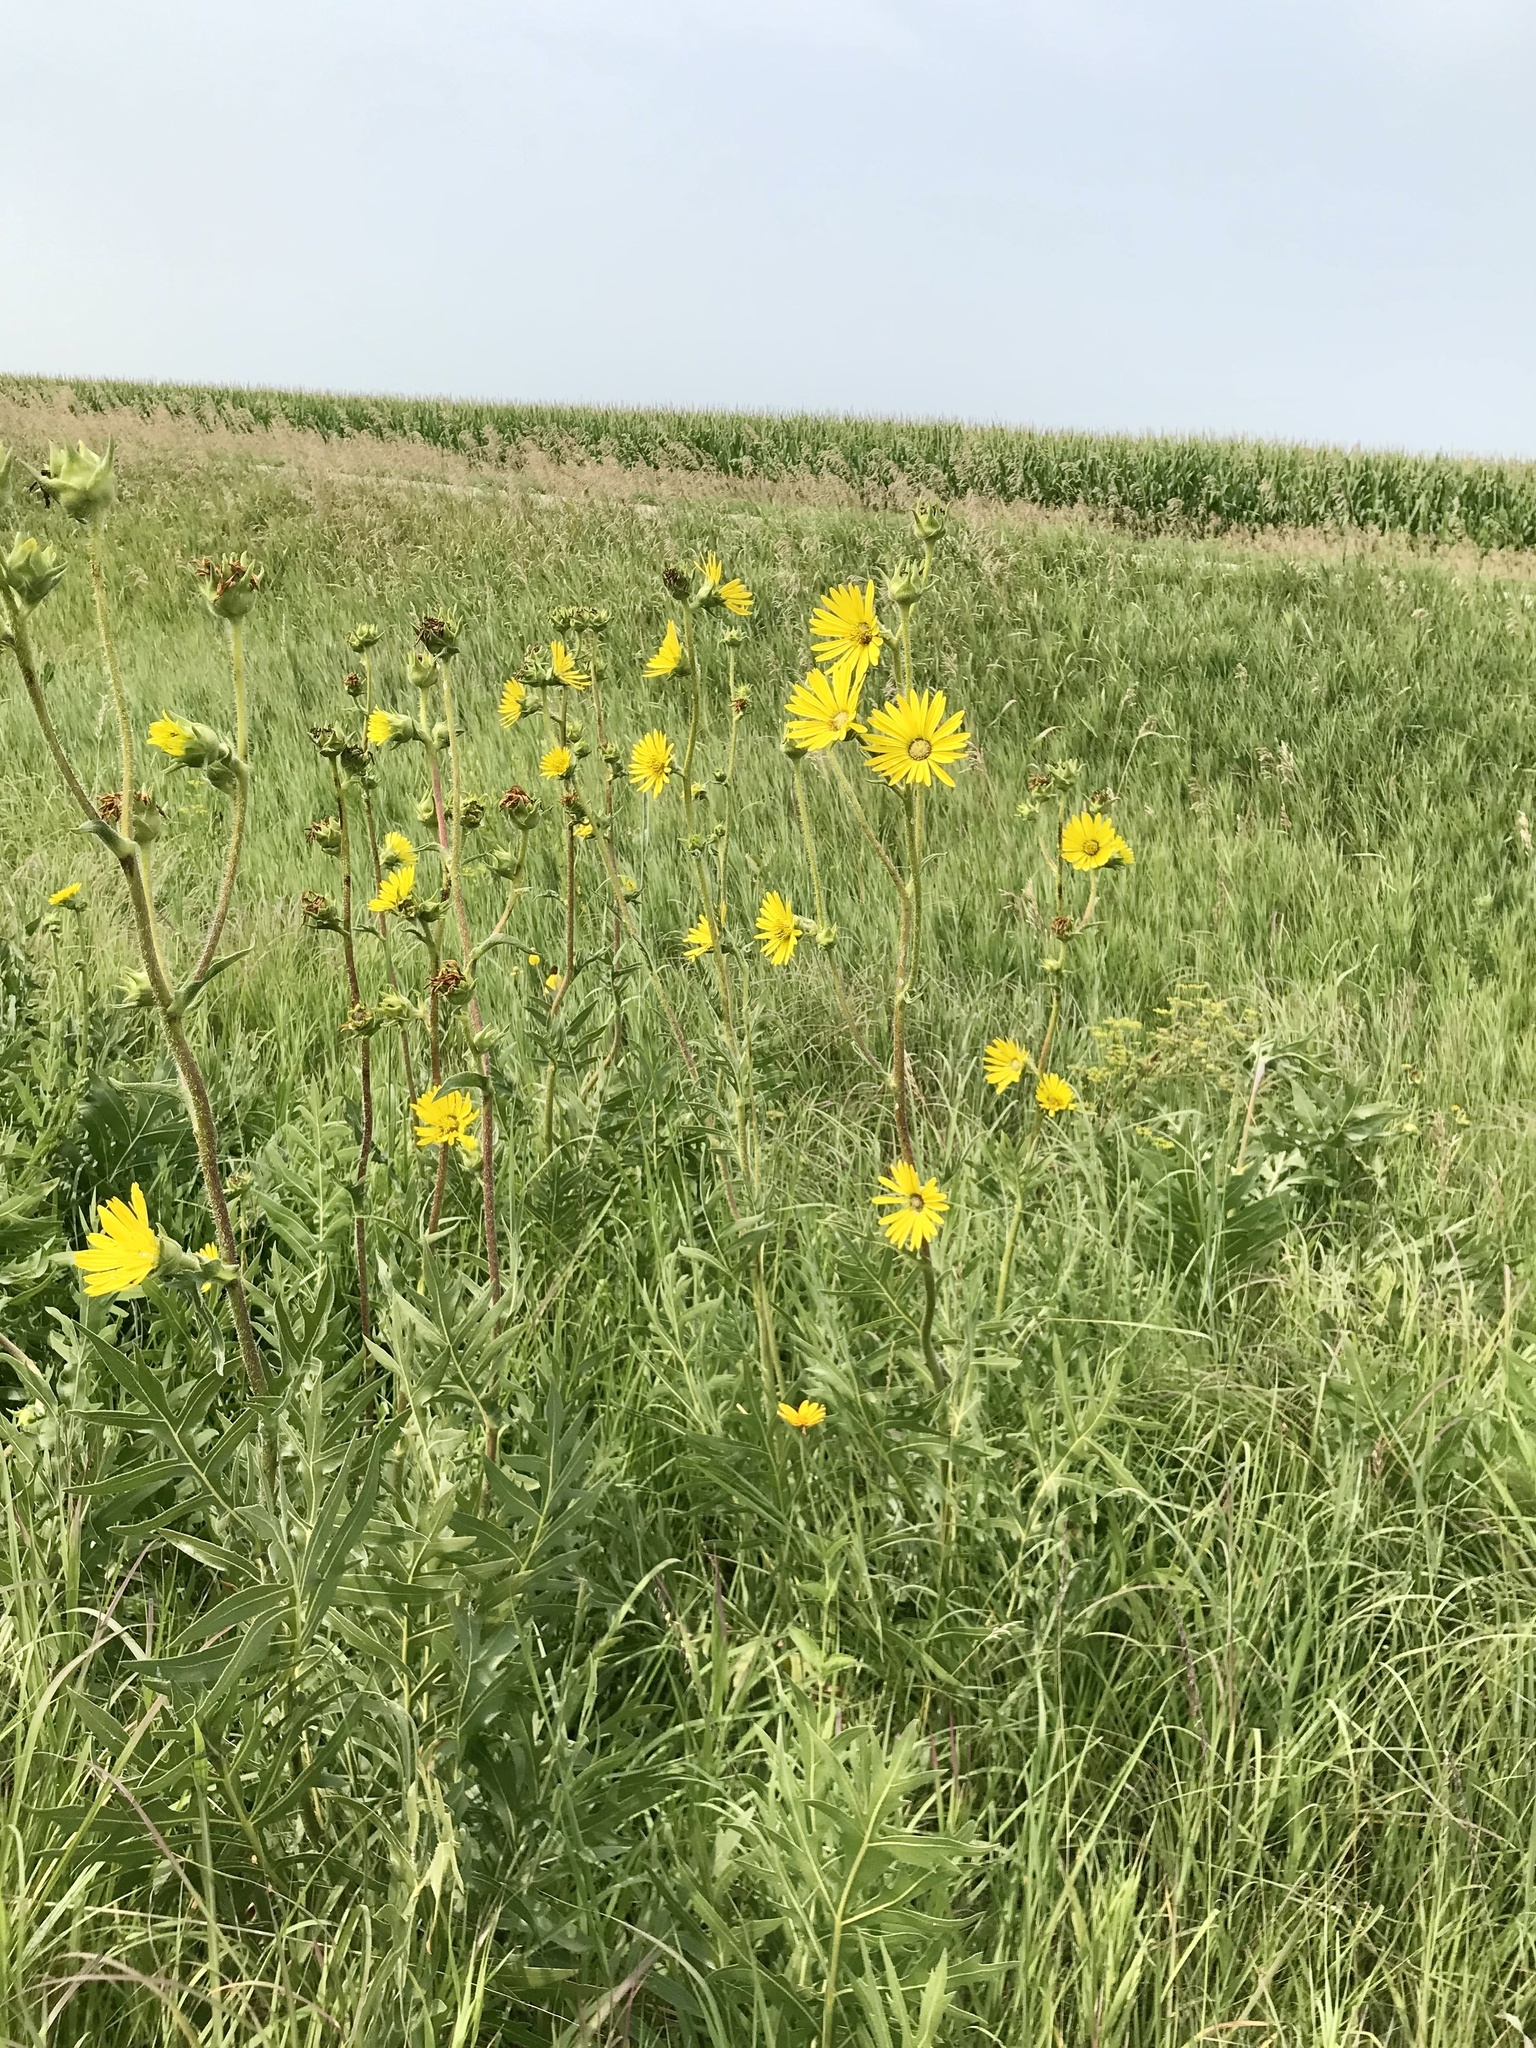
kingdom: Plantae
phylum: Tracheophyta
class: Magnoliopsida
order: Asterales
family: Asteraceae
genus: Silphium
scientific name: Silphium laciniatum
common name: Polarplant
